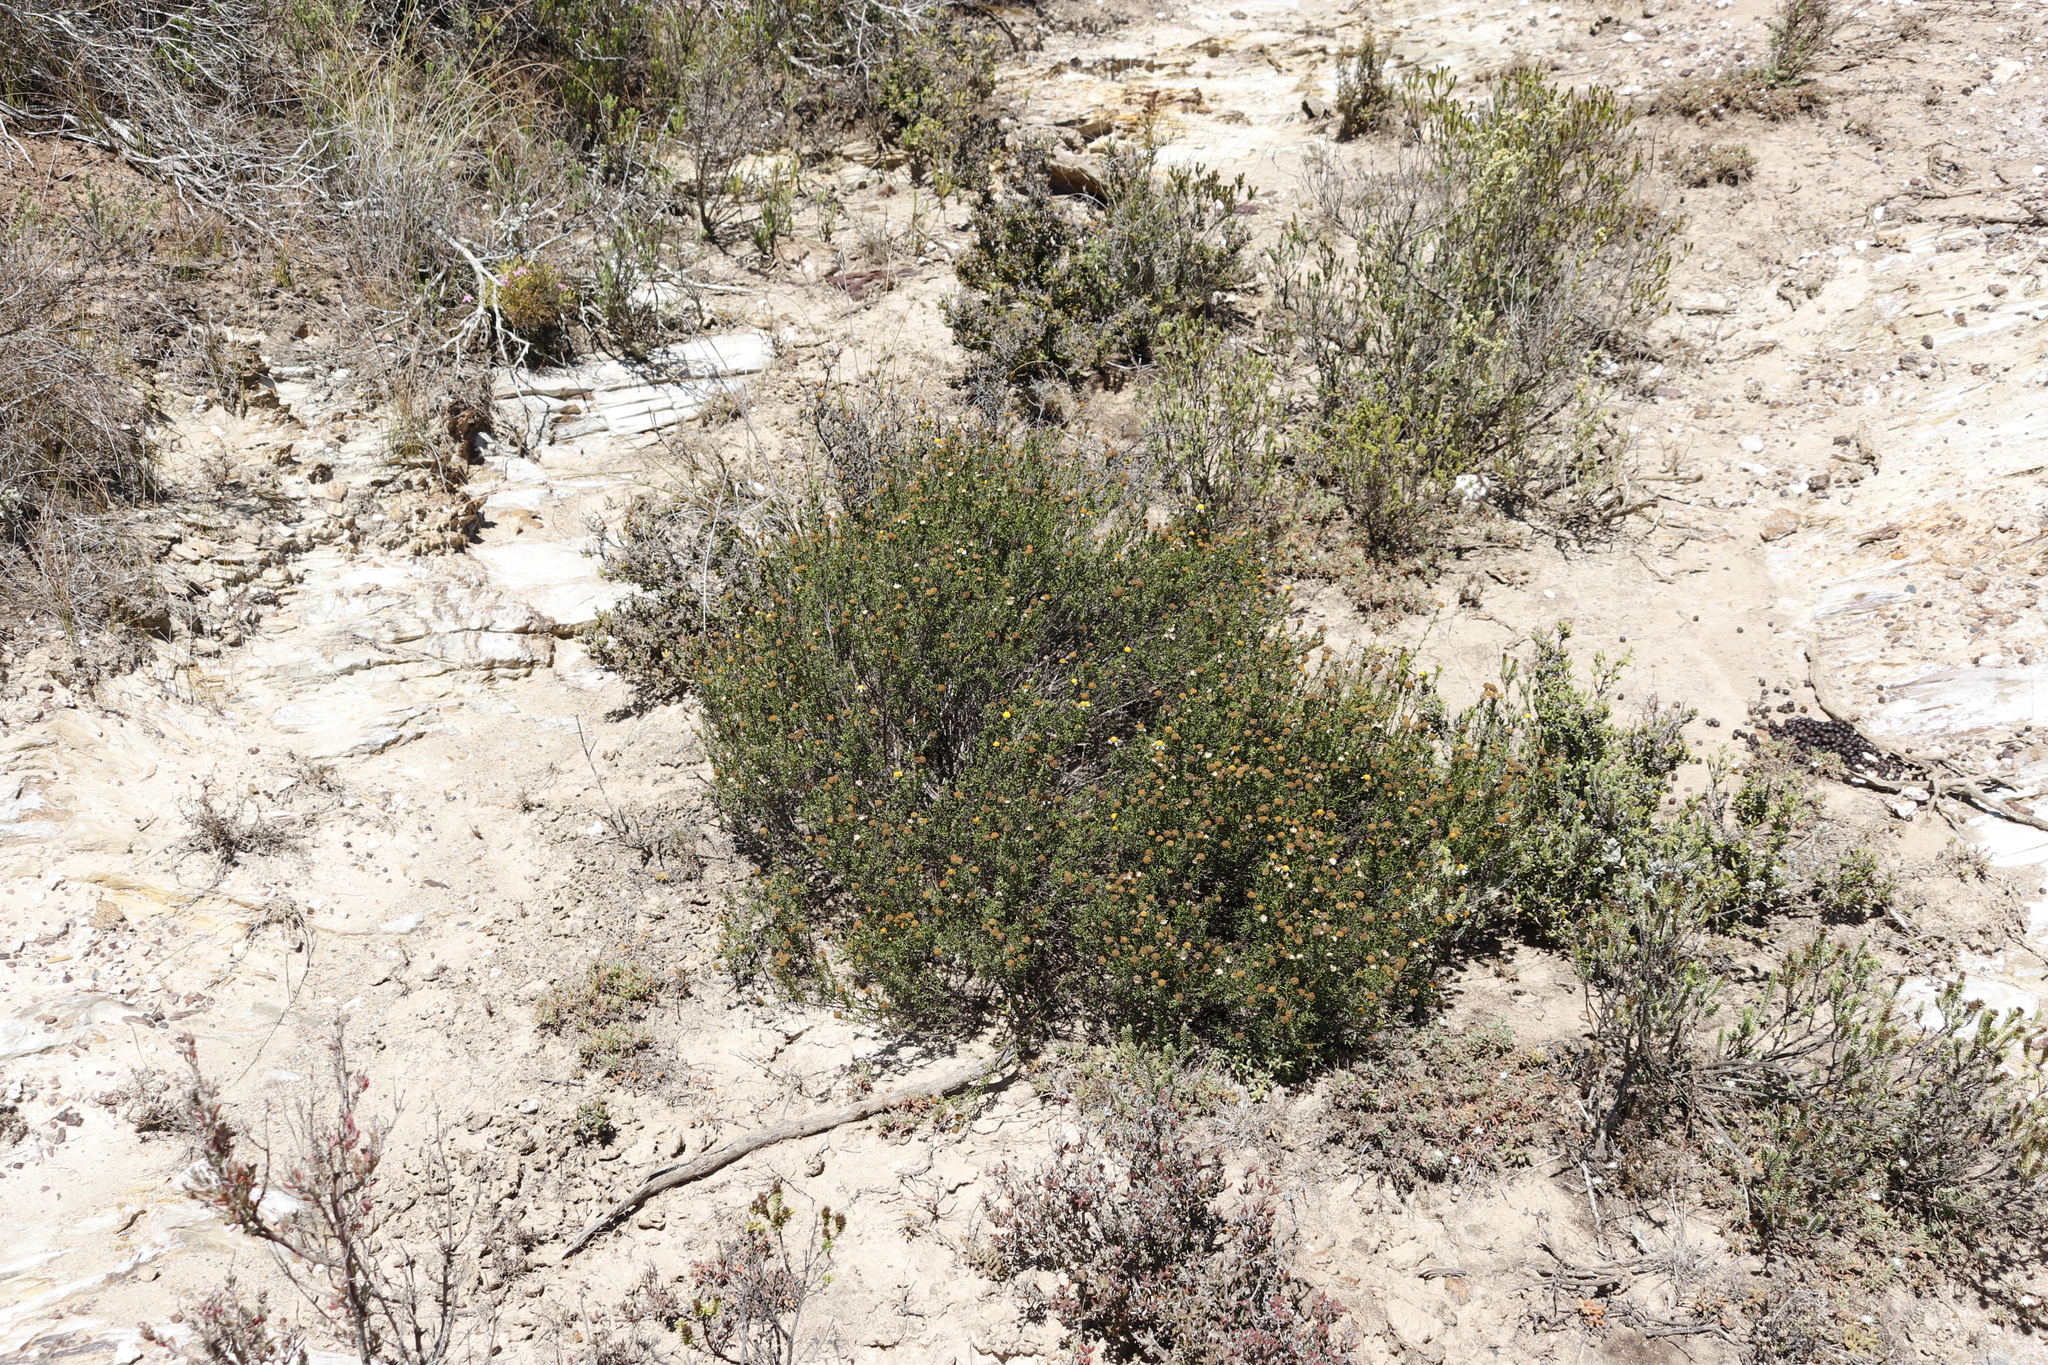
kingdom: Plantae
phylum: Tracheophyta
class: Magnoliopsida
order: Asterales
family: Asteraceae
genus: Cymbopappus
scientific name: Cymbopappus adenosolen
